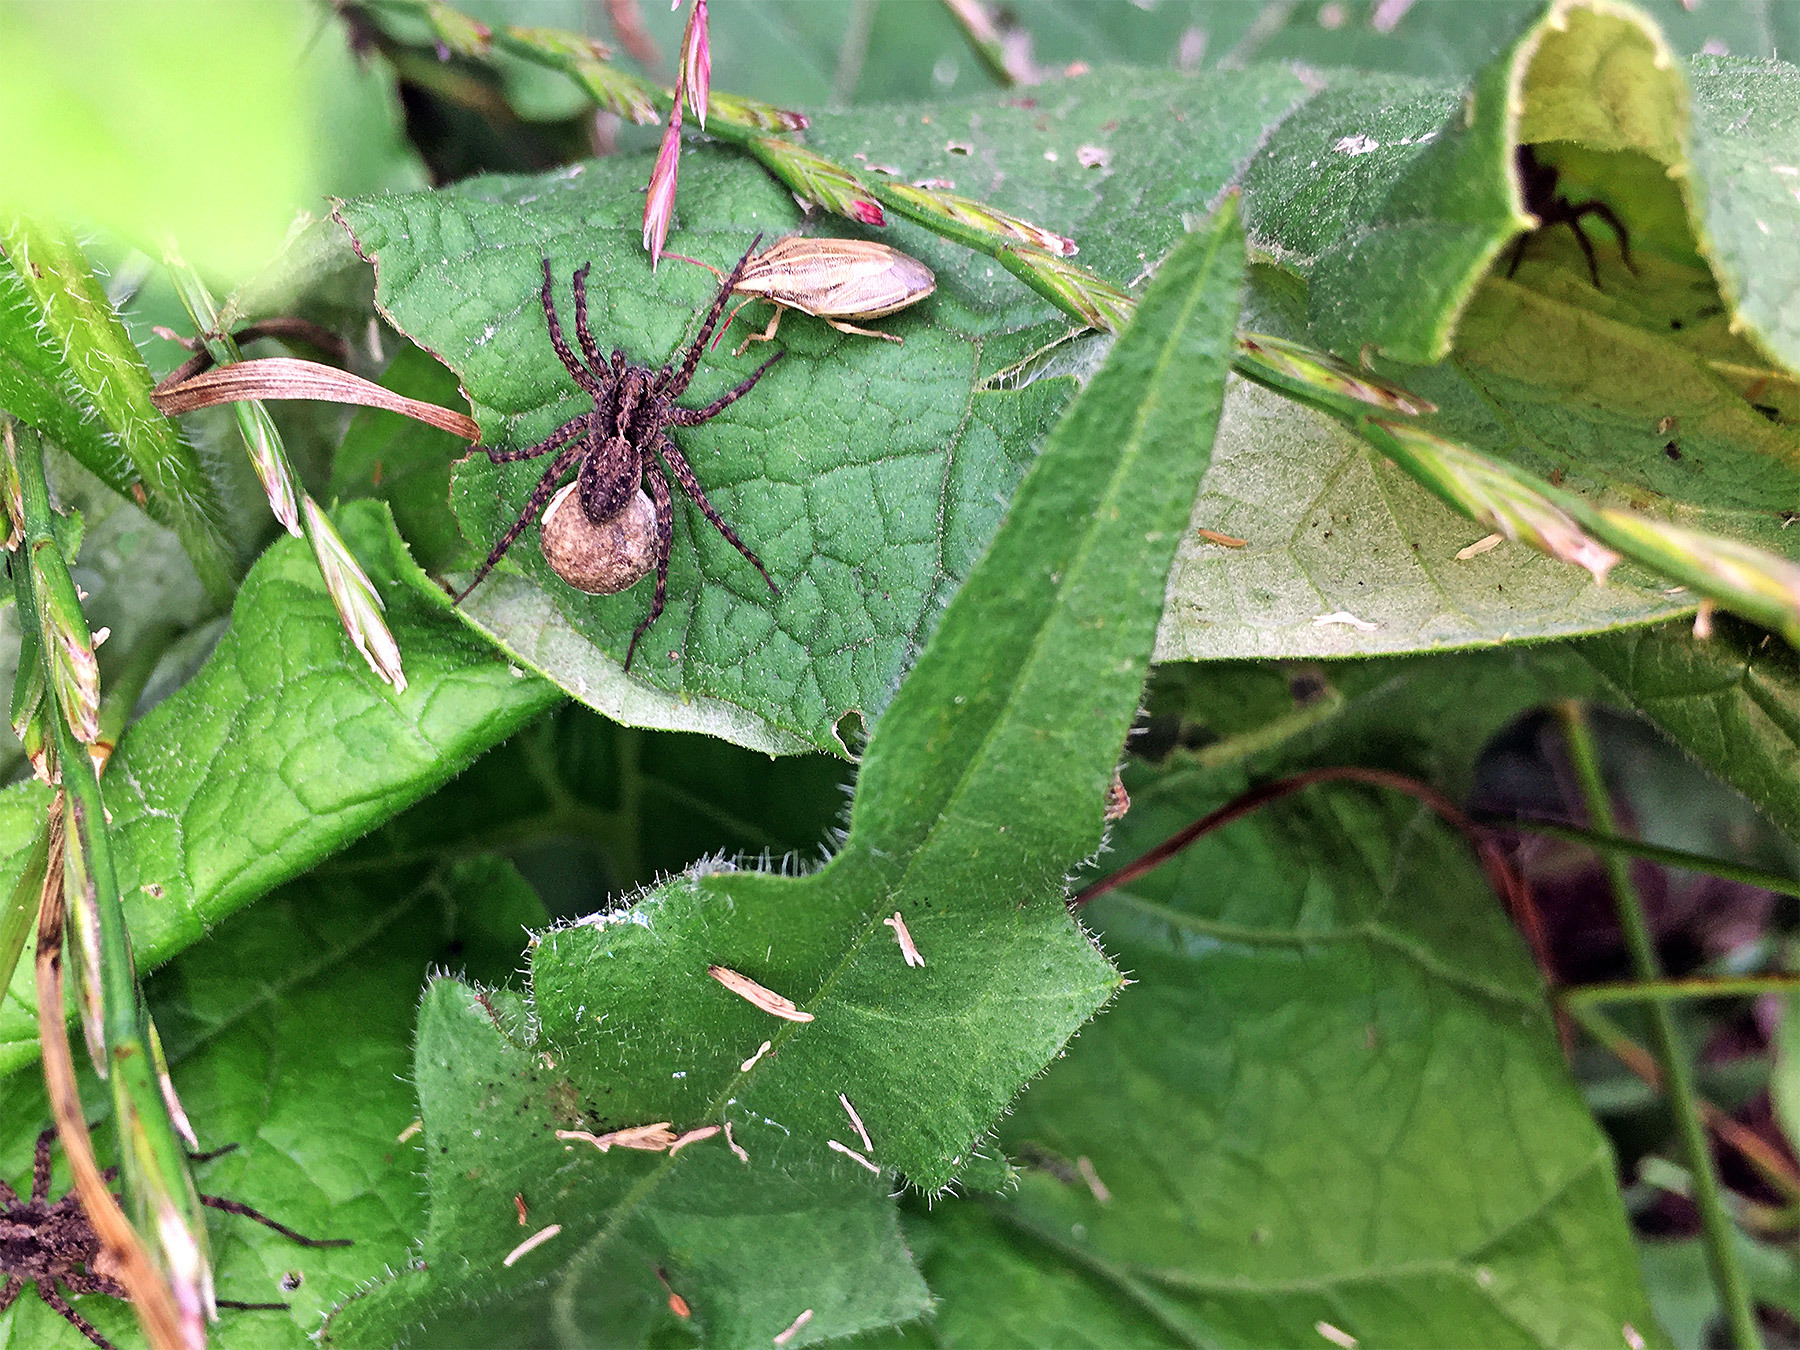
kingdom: Animalia
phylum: Arthropoda
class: Insecta
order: Hemiptera
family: Pentatomidae
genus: Aelia
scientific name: Aelia acuminata
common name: Bishop's mitre
